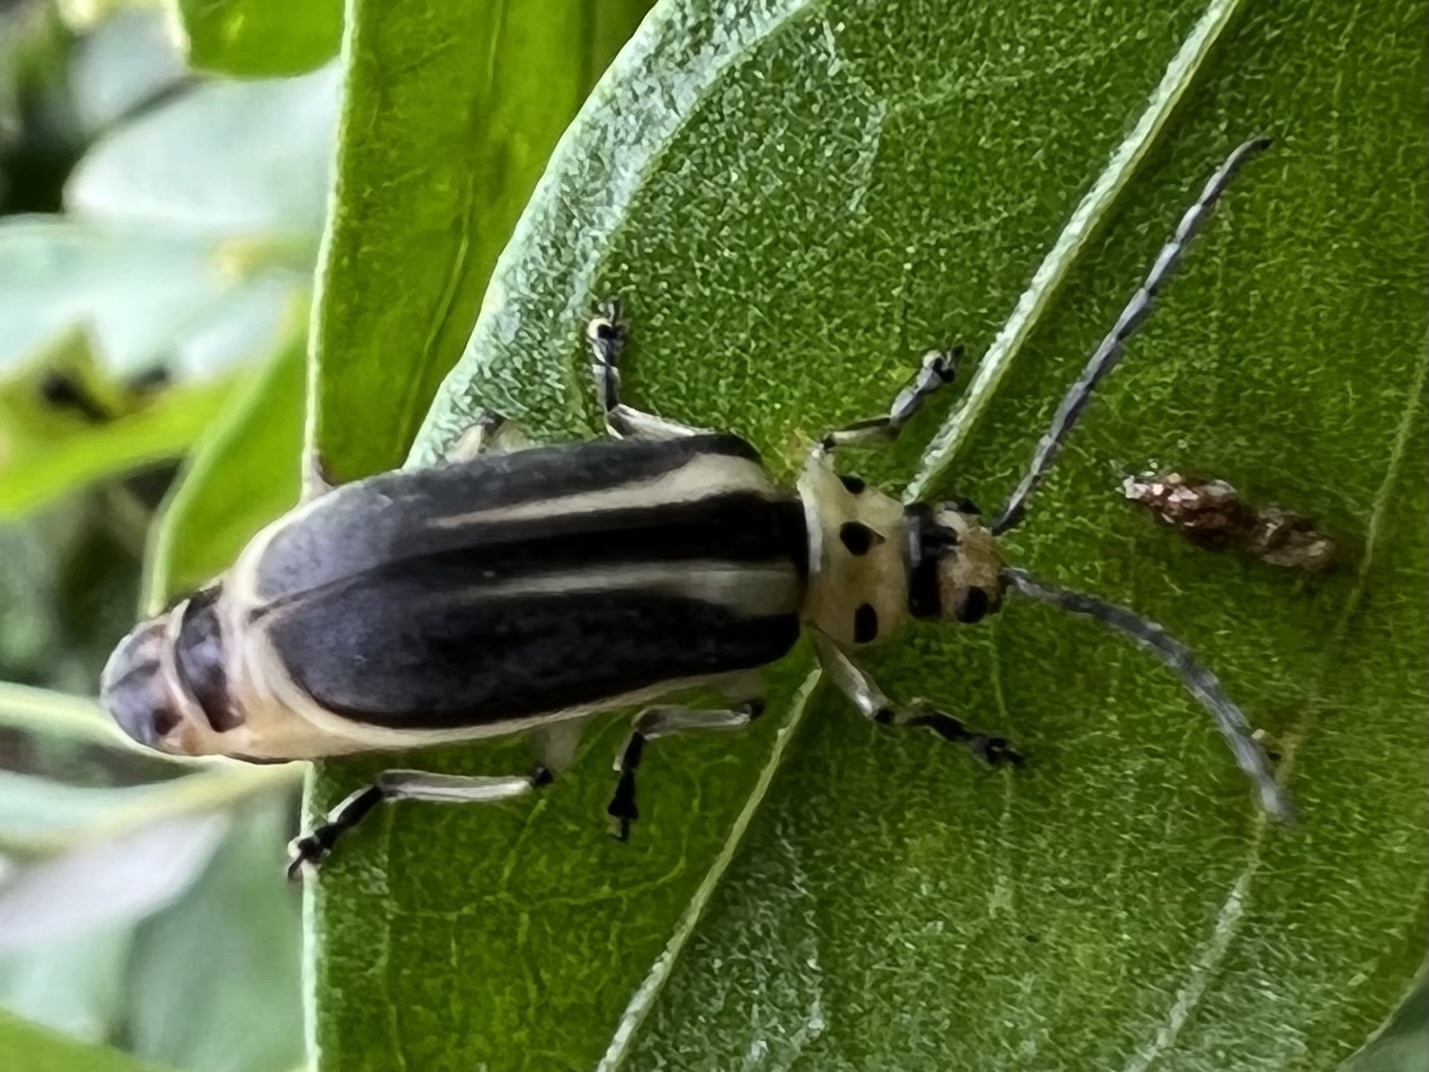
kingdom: Animalia
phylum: Arthropoda
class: Insecta
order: Coleoptera
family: Chrysomelidae
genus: Trirhabda
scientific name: Trirhabda bacharidis
